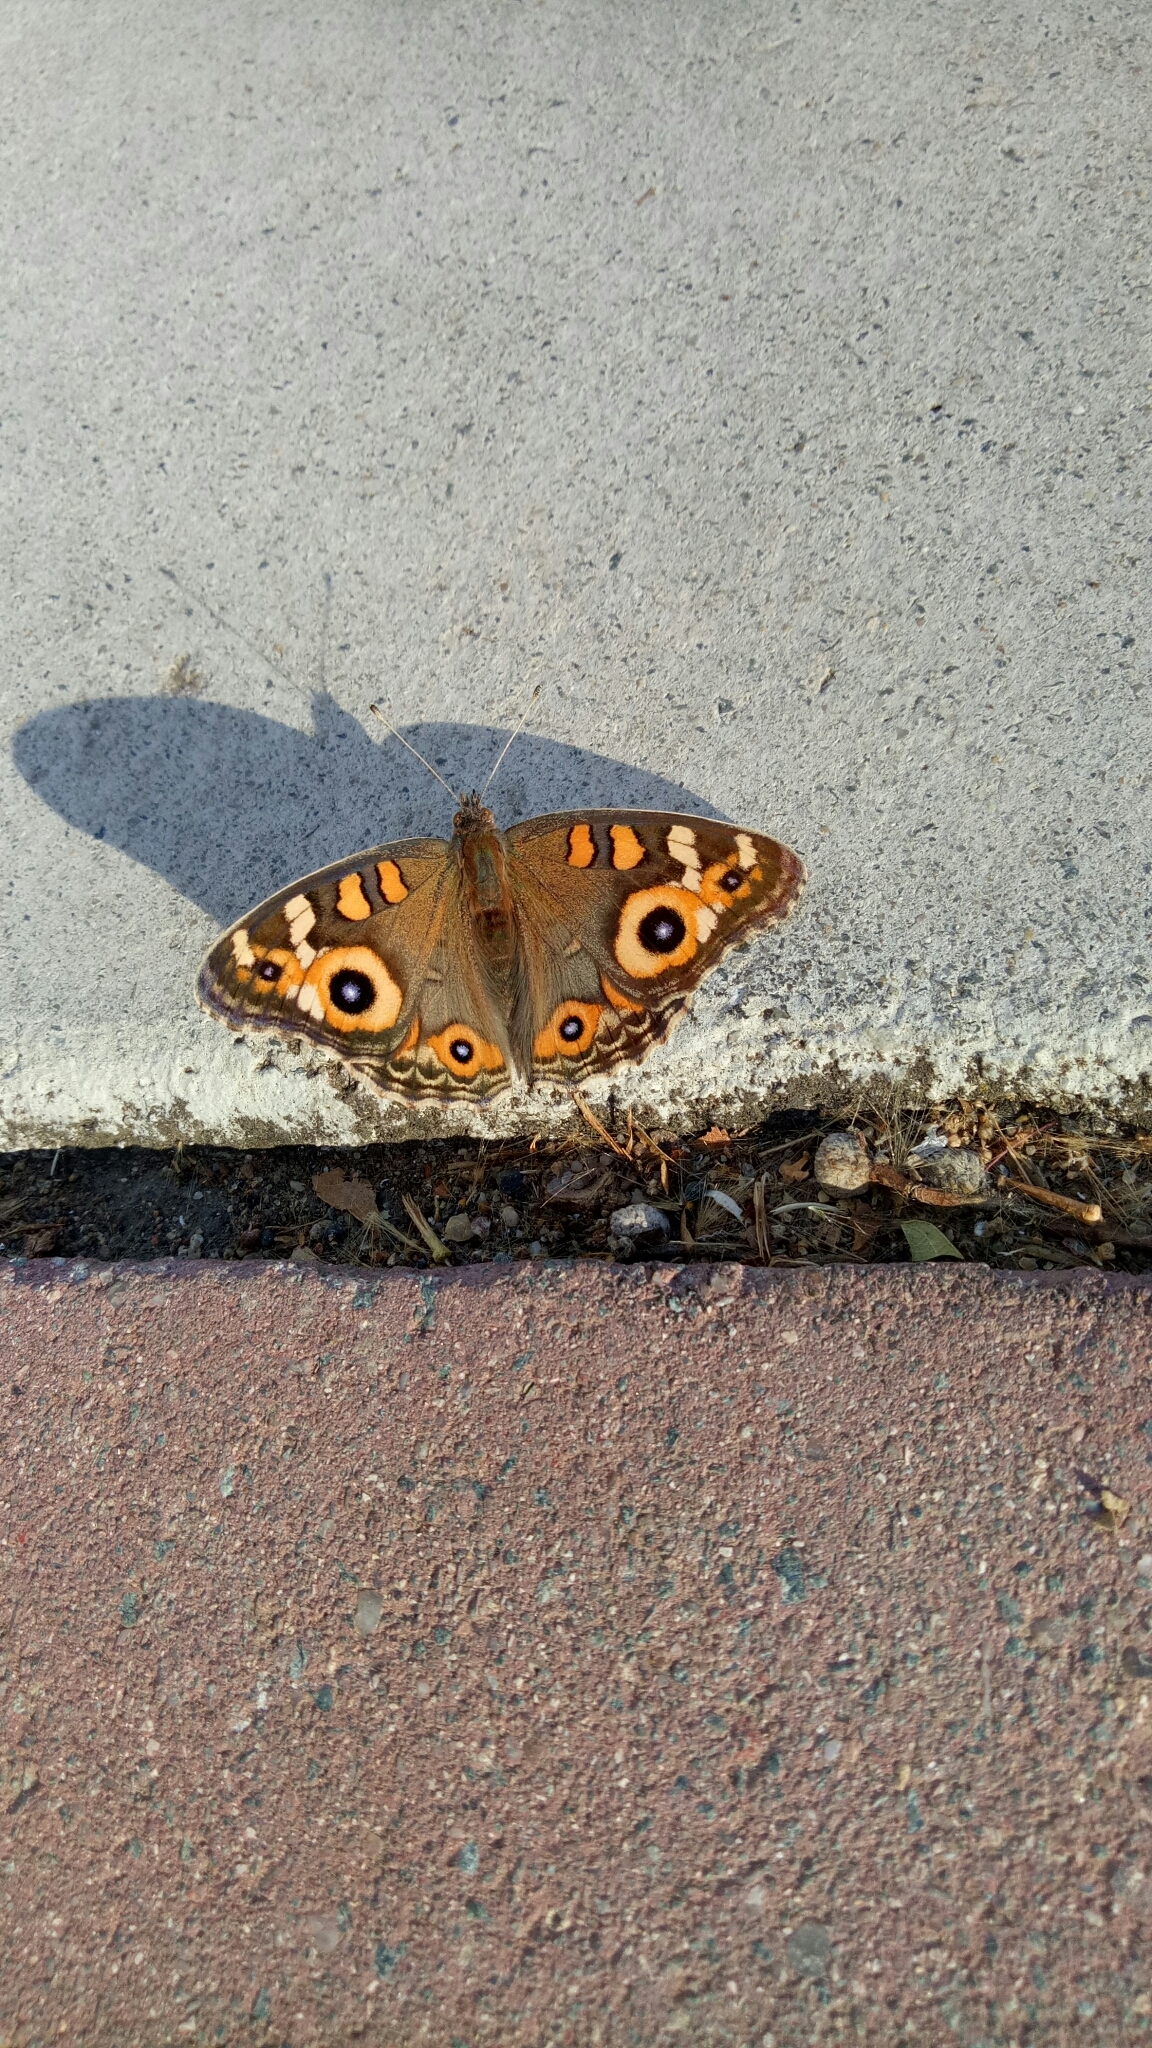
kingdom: Animalia
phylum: Arthropoda
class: Insecta
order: Lepidoptera
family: Nymphalidae
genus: Junonia
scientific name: Junonia villida
